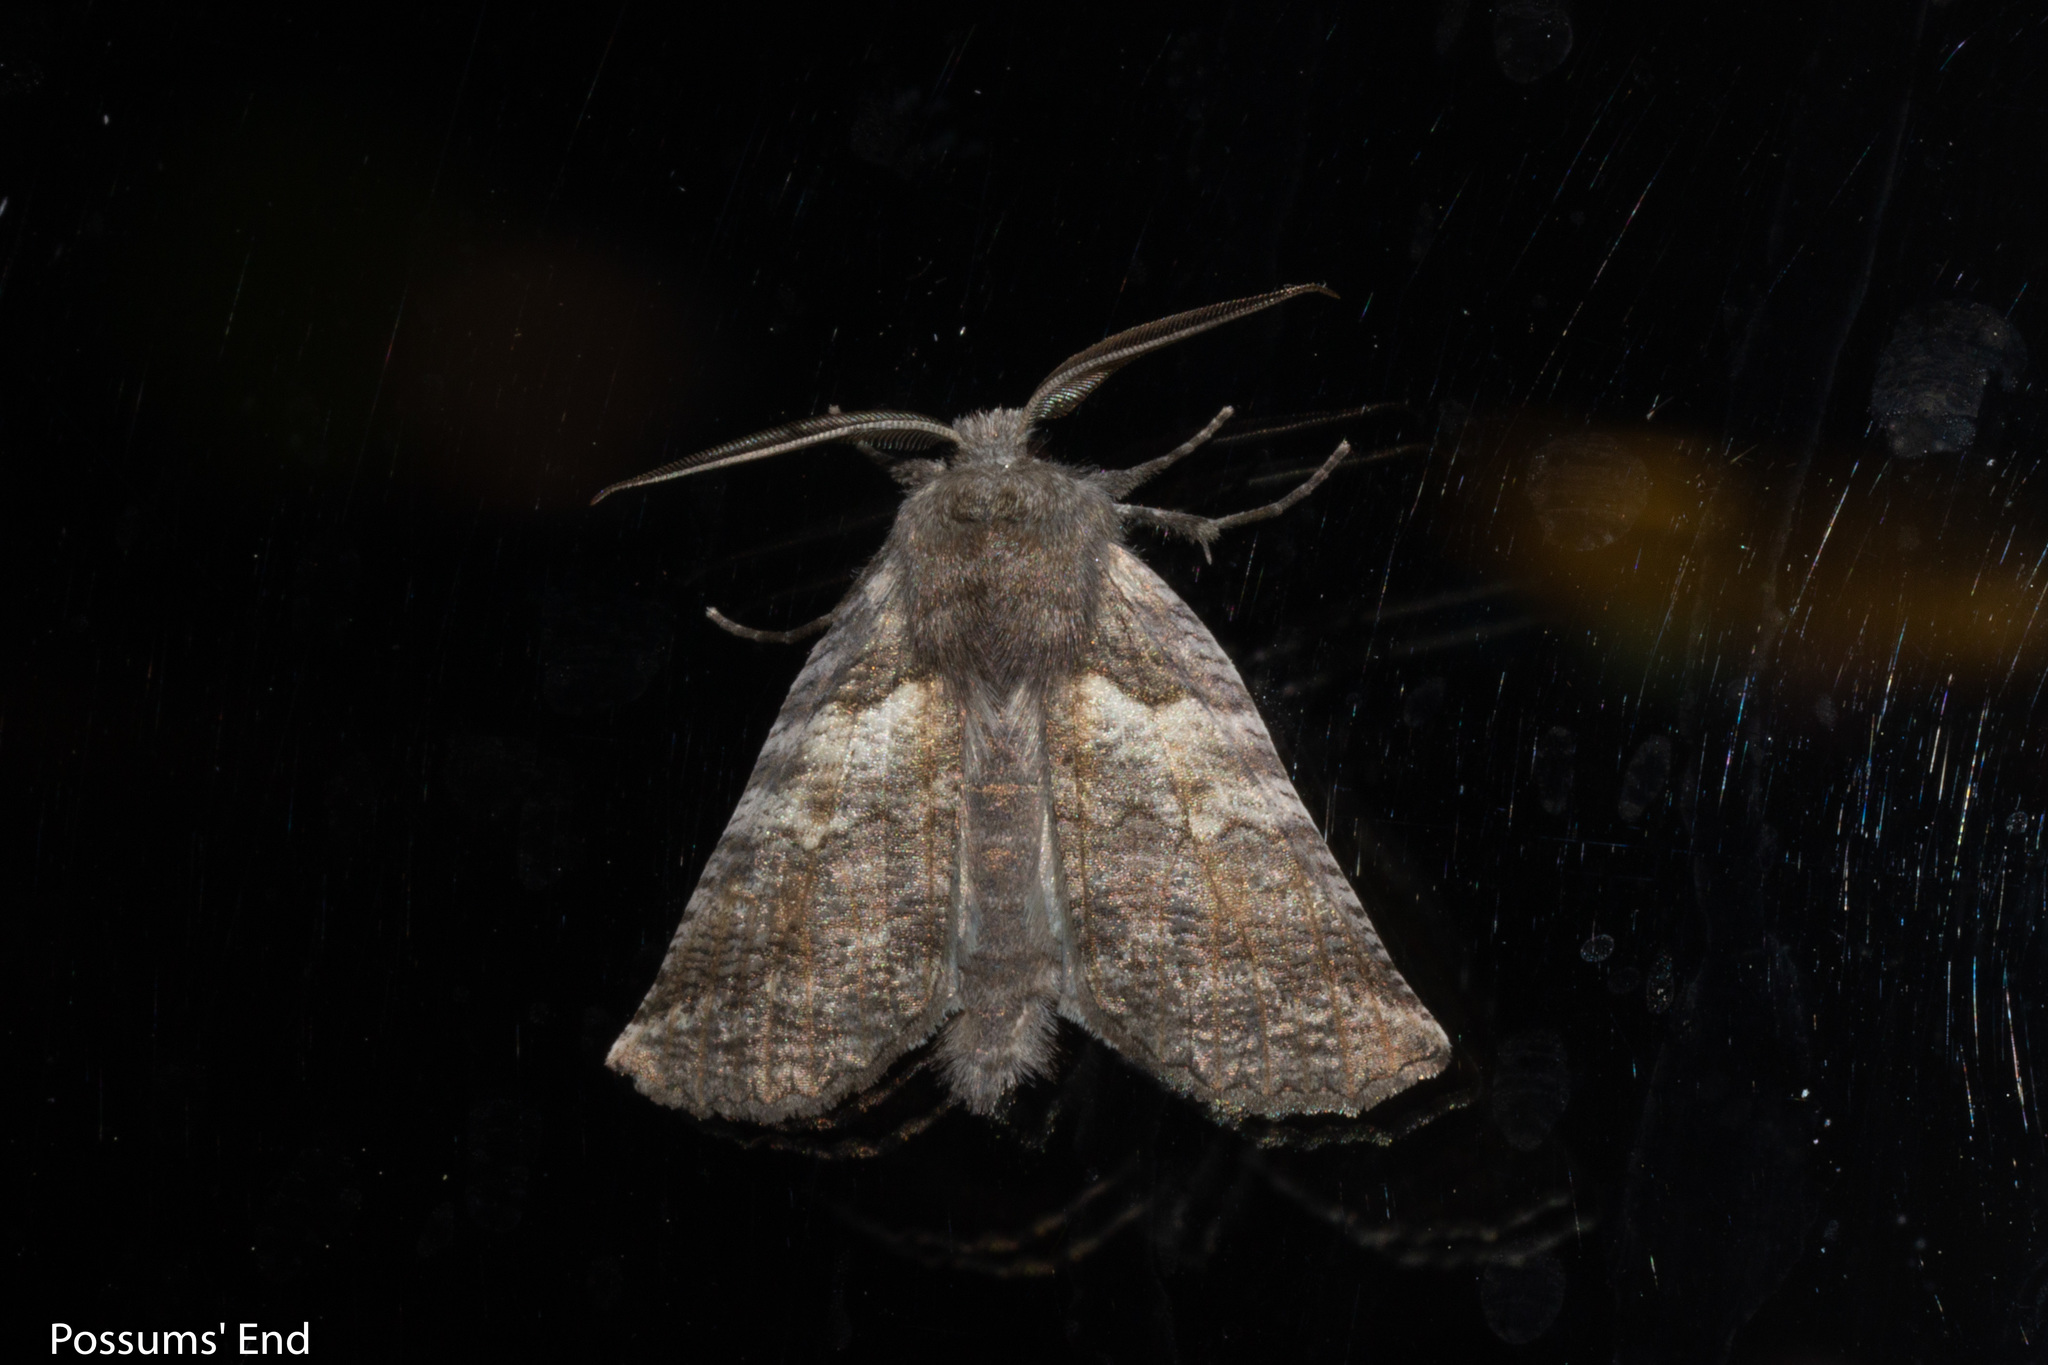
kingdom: Animalia
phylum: Arthropoda
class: Insecta
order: Lepidoptera
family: Geometridae
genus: Declana
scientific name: Declana
